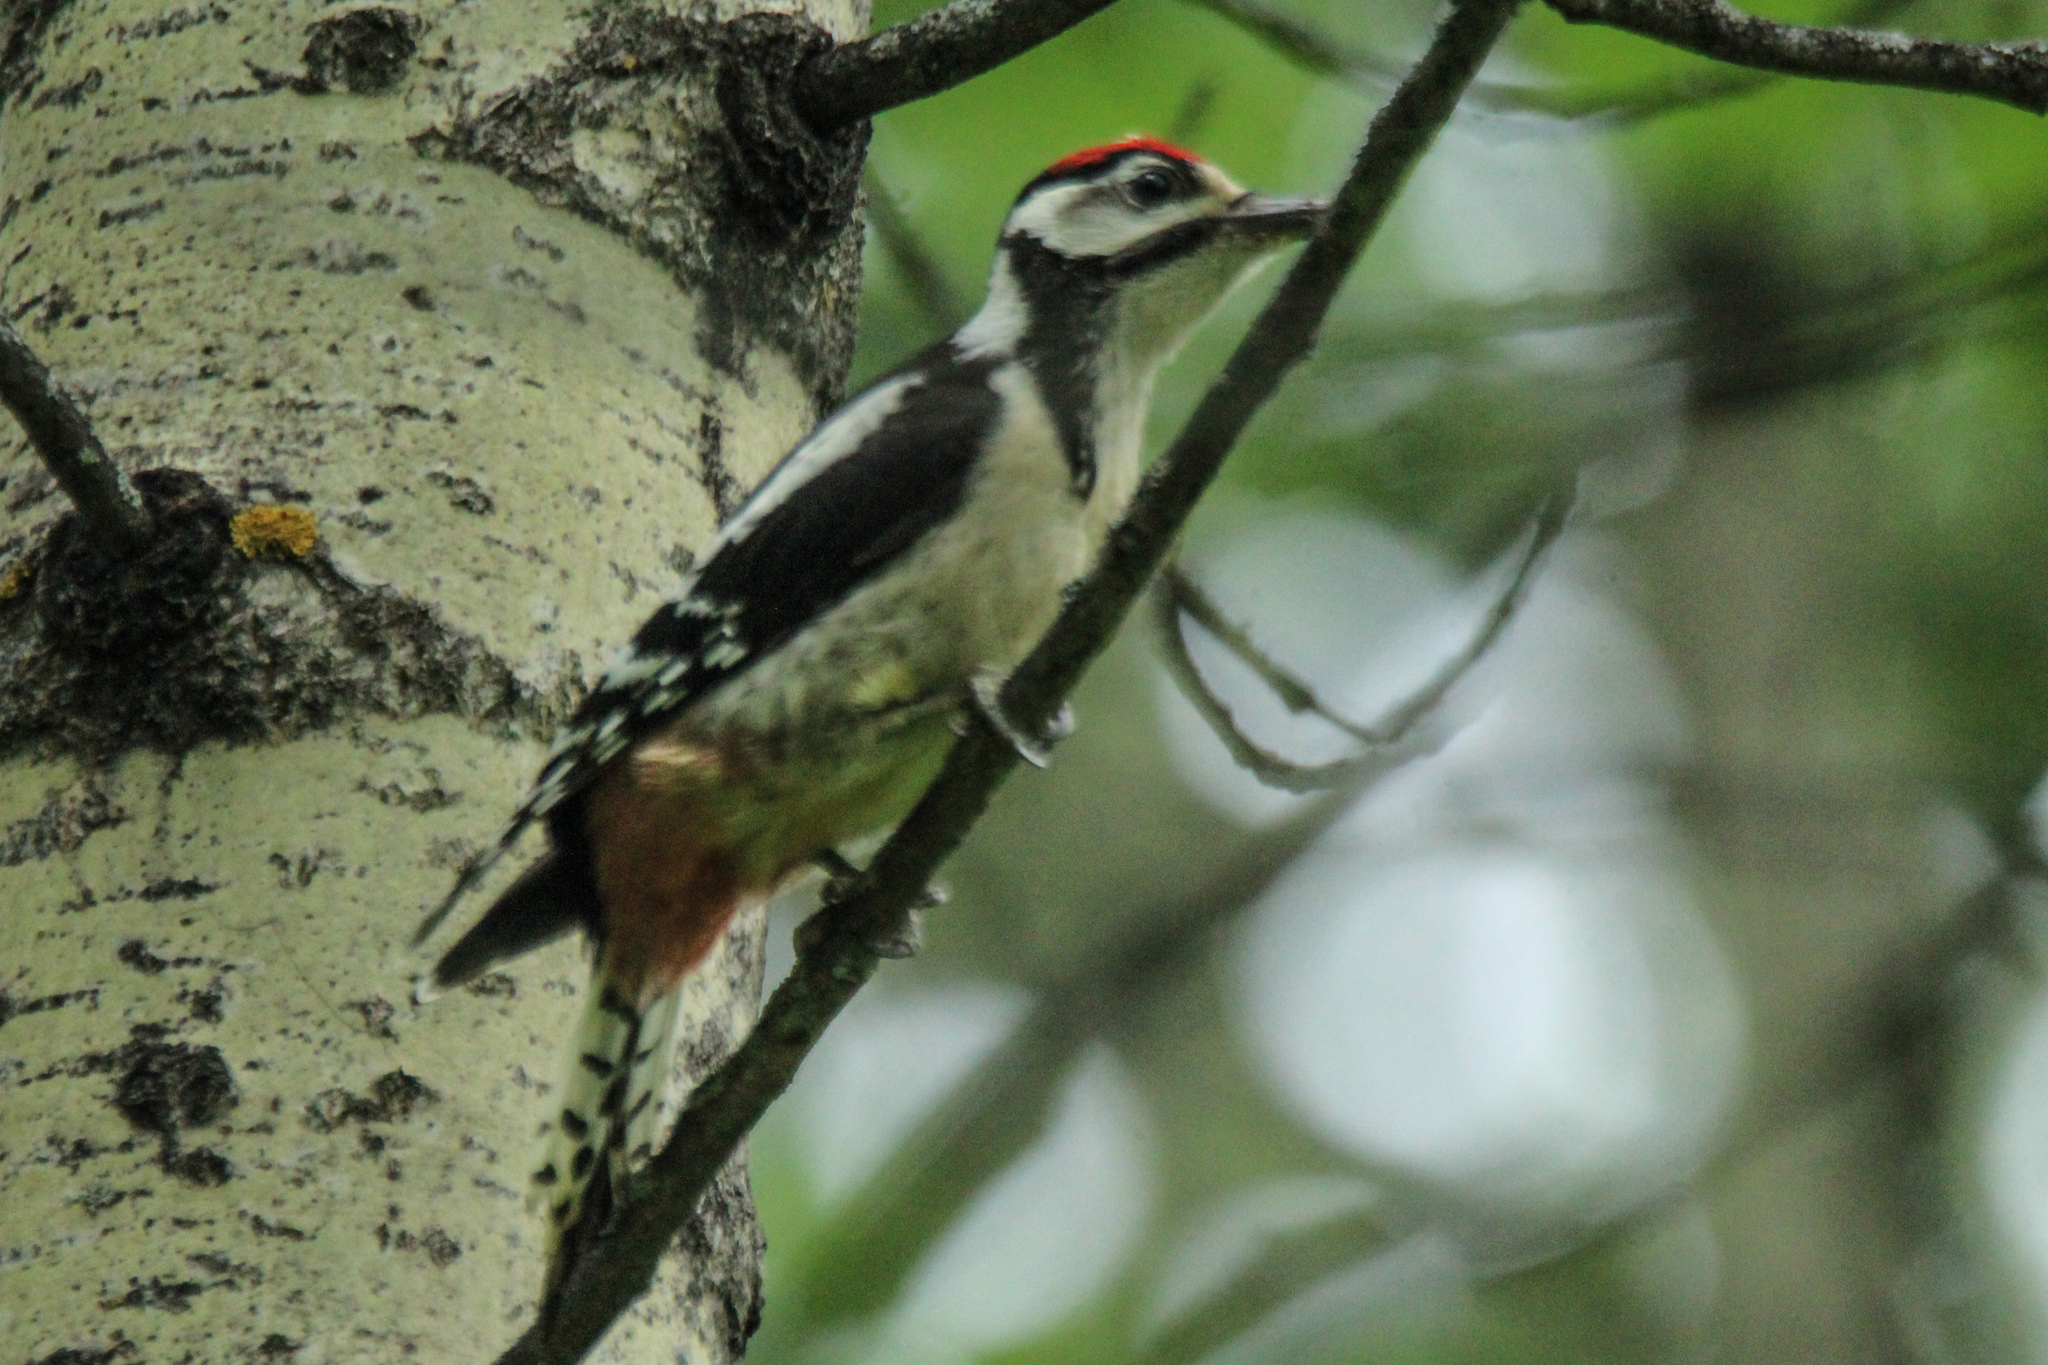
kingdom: Animalia
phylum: Chordata
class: Aves
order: Piciformes
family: Picidae
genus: Dendrocopos
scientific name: Dendrocopos major
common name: Great spotted woodpecker
